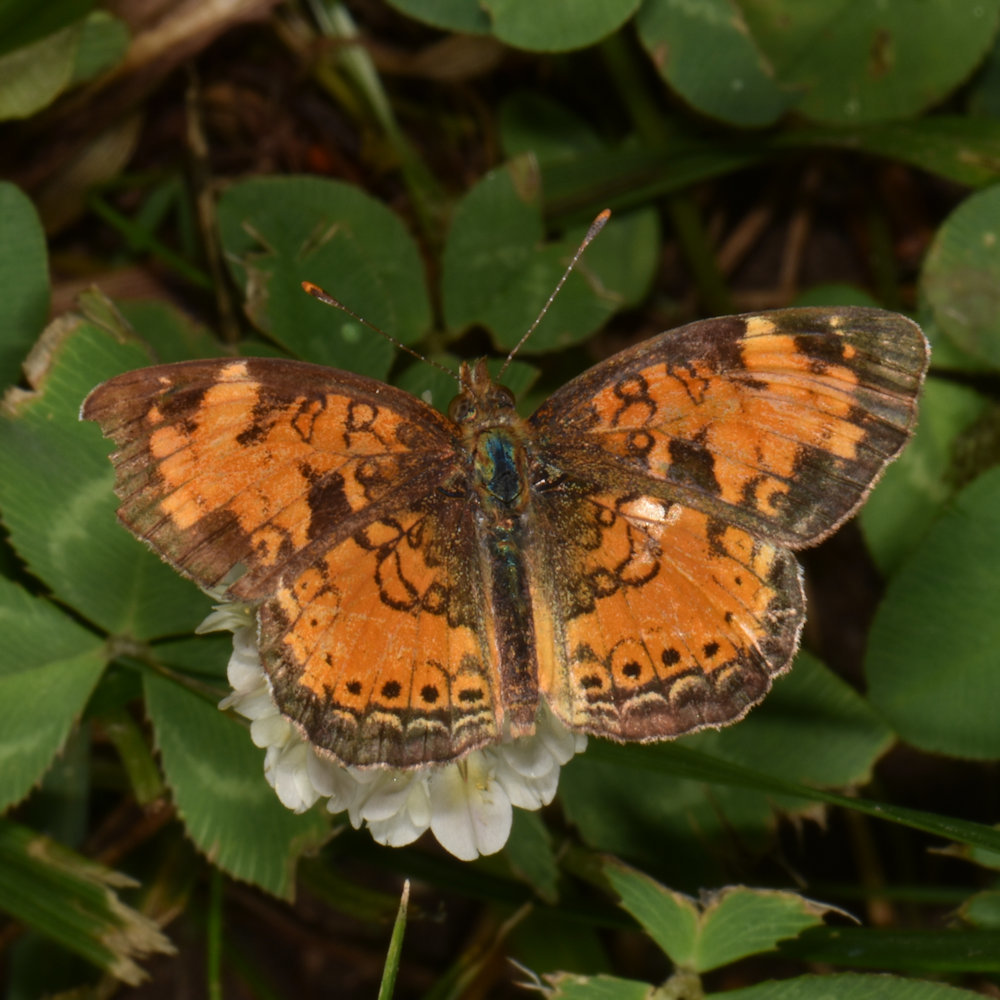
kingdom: Animalia
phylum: Arthropoda
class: Insecta
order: Lepidoptera
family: Nymphalidae
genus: Phyciodes
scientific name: Phyciodes tharos
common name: Pearl crescent
